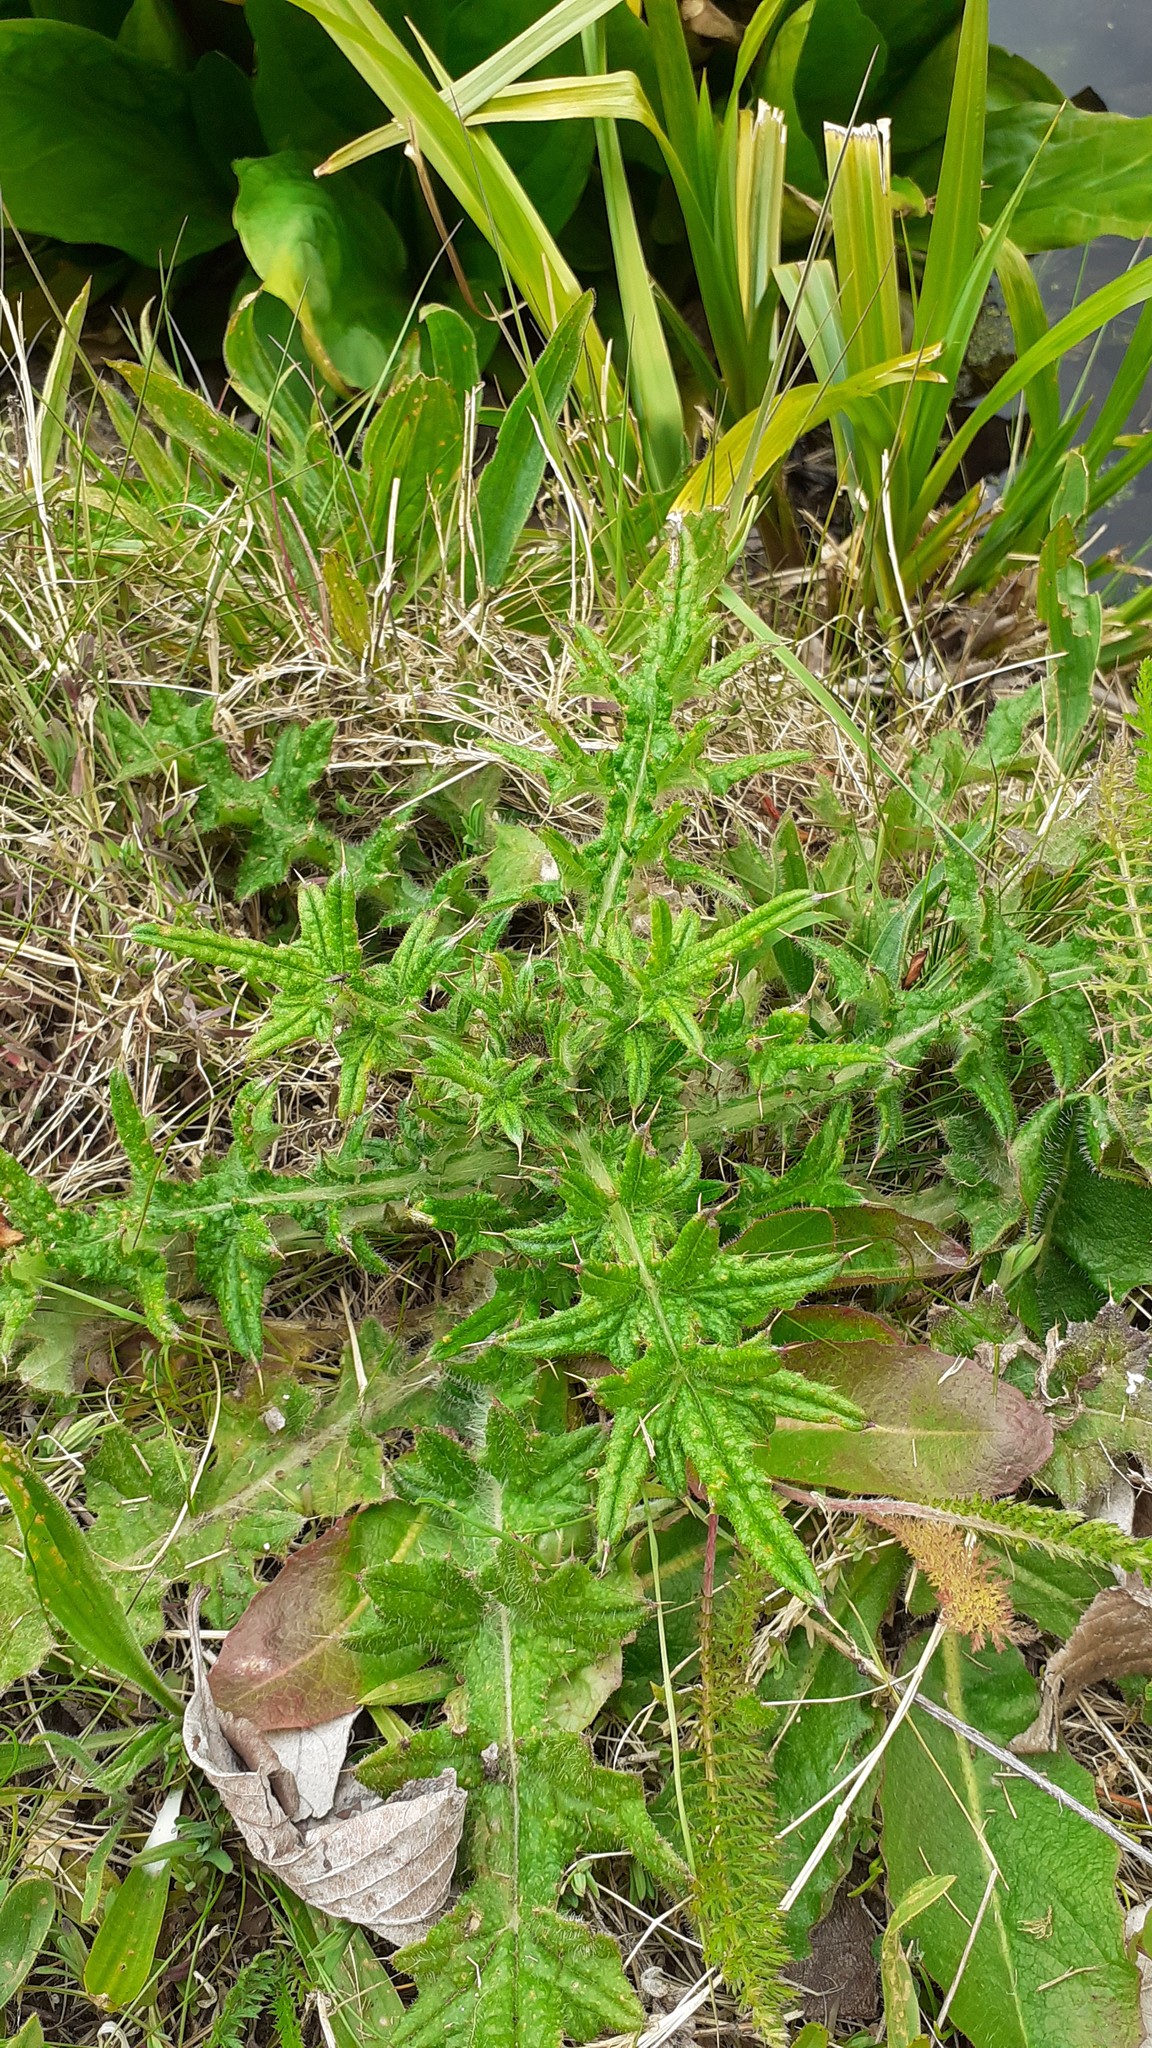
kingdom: Plantae
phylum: Tracheophyta
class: Magnoliopsida
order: Asterales
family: Asteraceae
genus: Cirsium
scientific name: Cirsium vulgare
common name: Bull thistle
